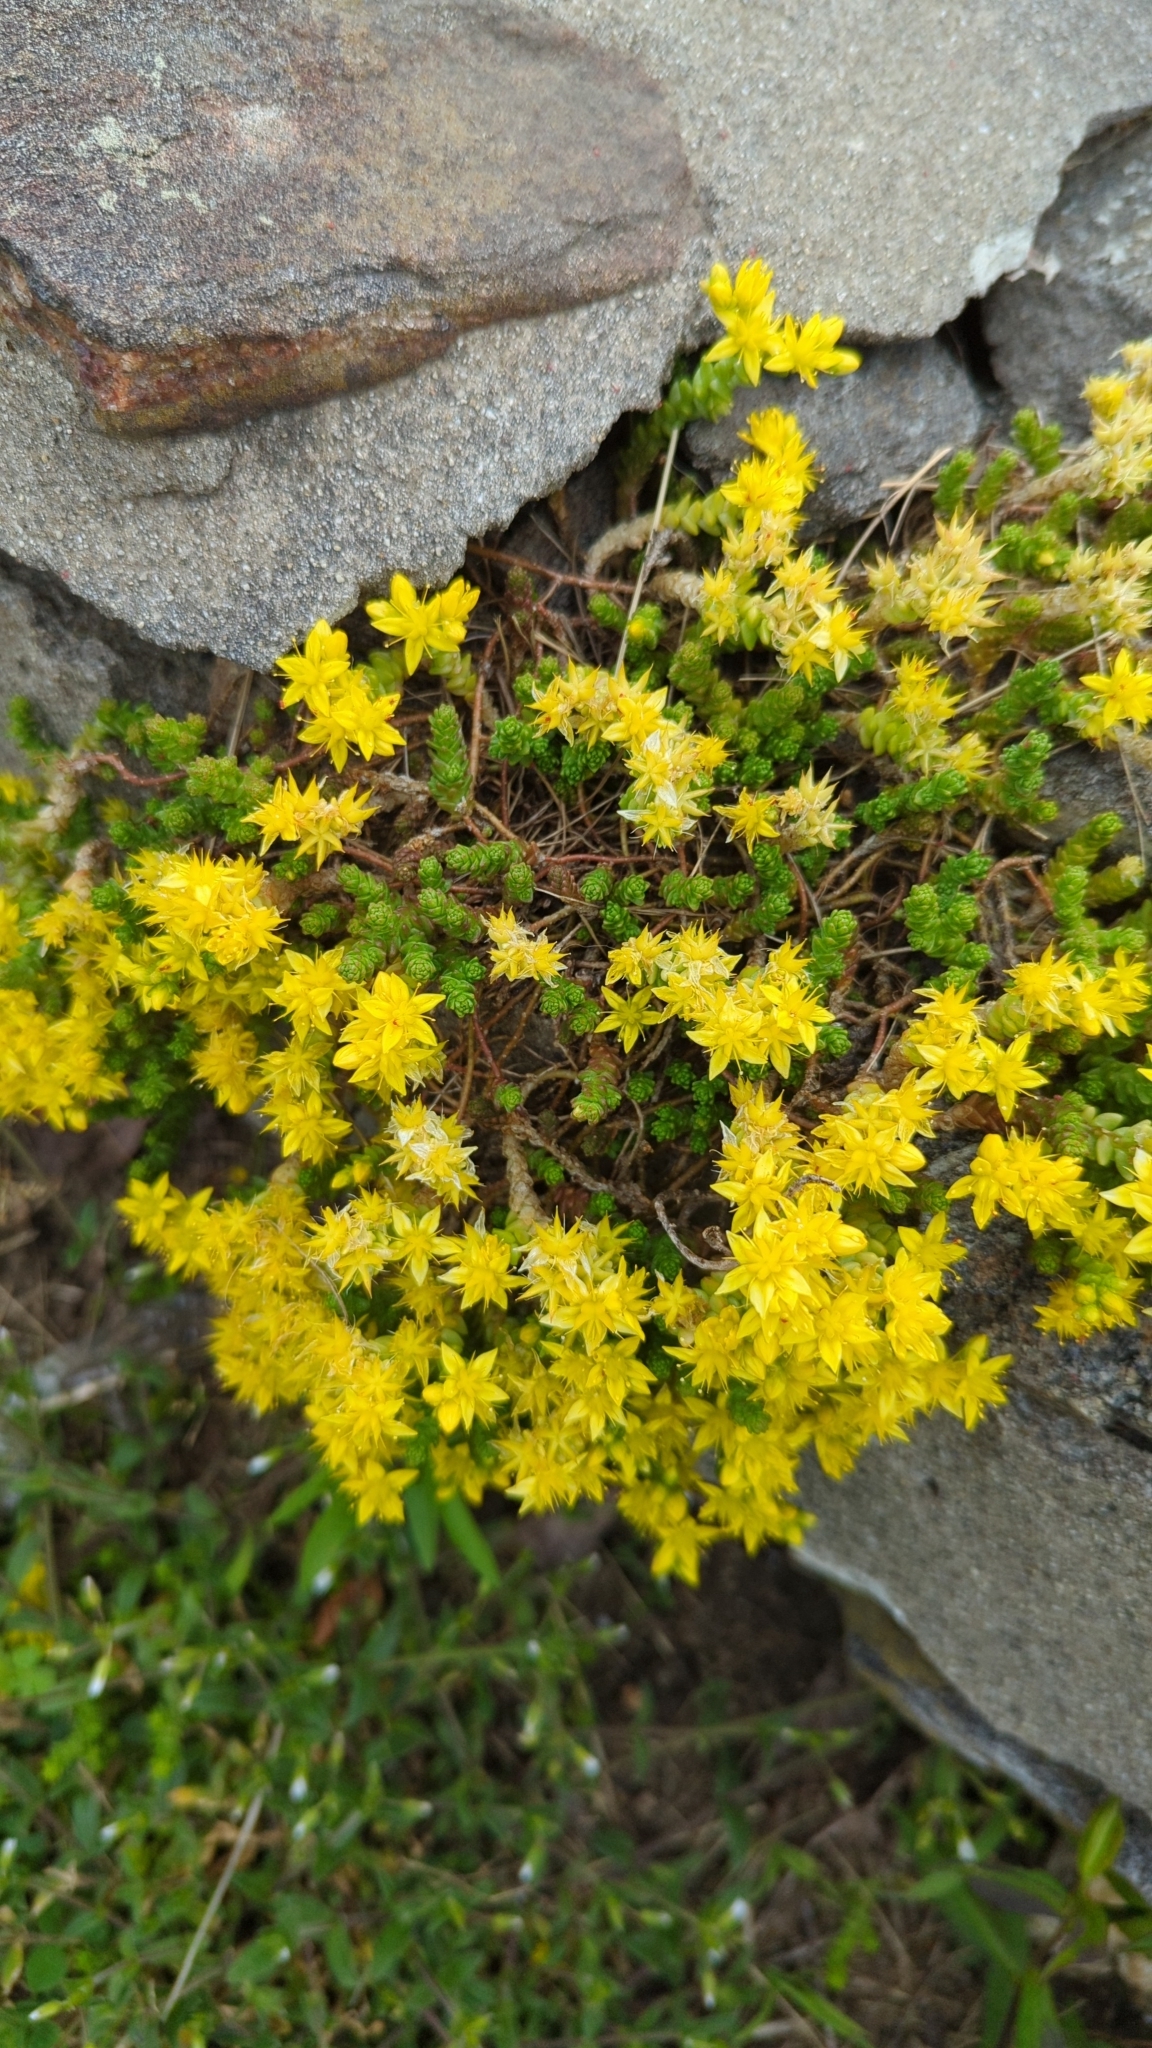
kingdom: Plantae
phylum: Tracheophyta
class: Magnoliopsida
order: Saxifragales
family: Crassulaceae
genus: Sedum
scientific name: Sedum acre
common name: Biting stonecrop
